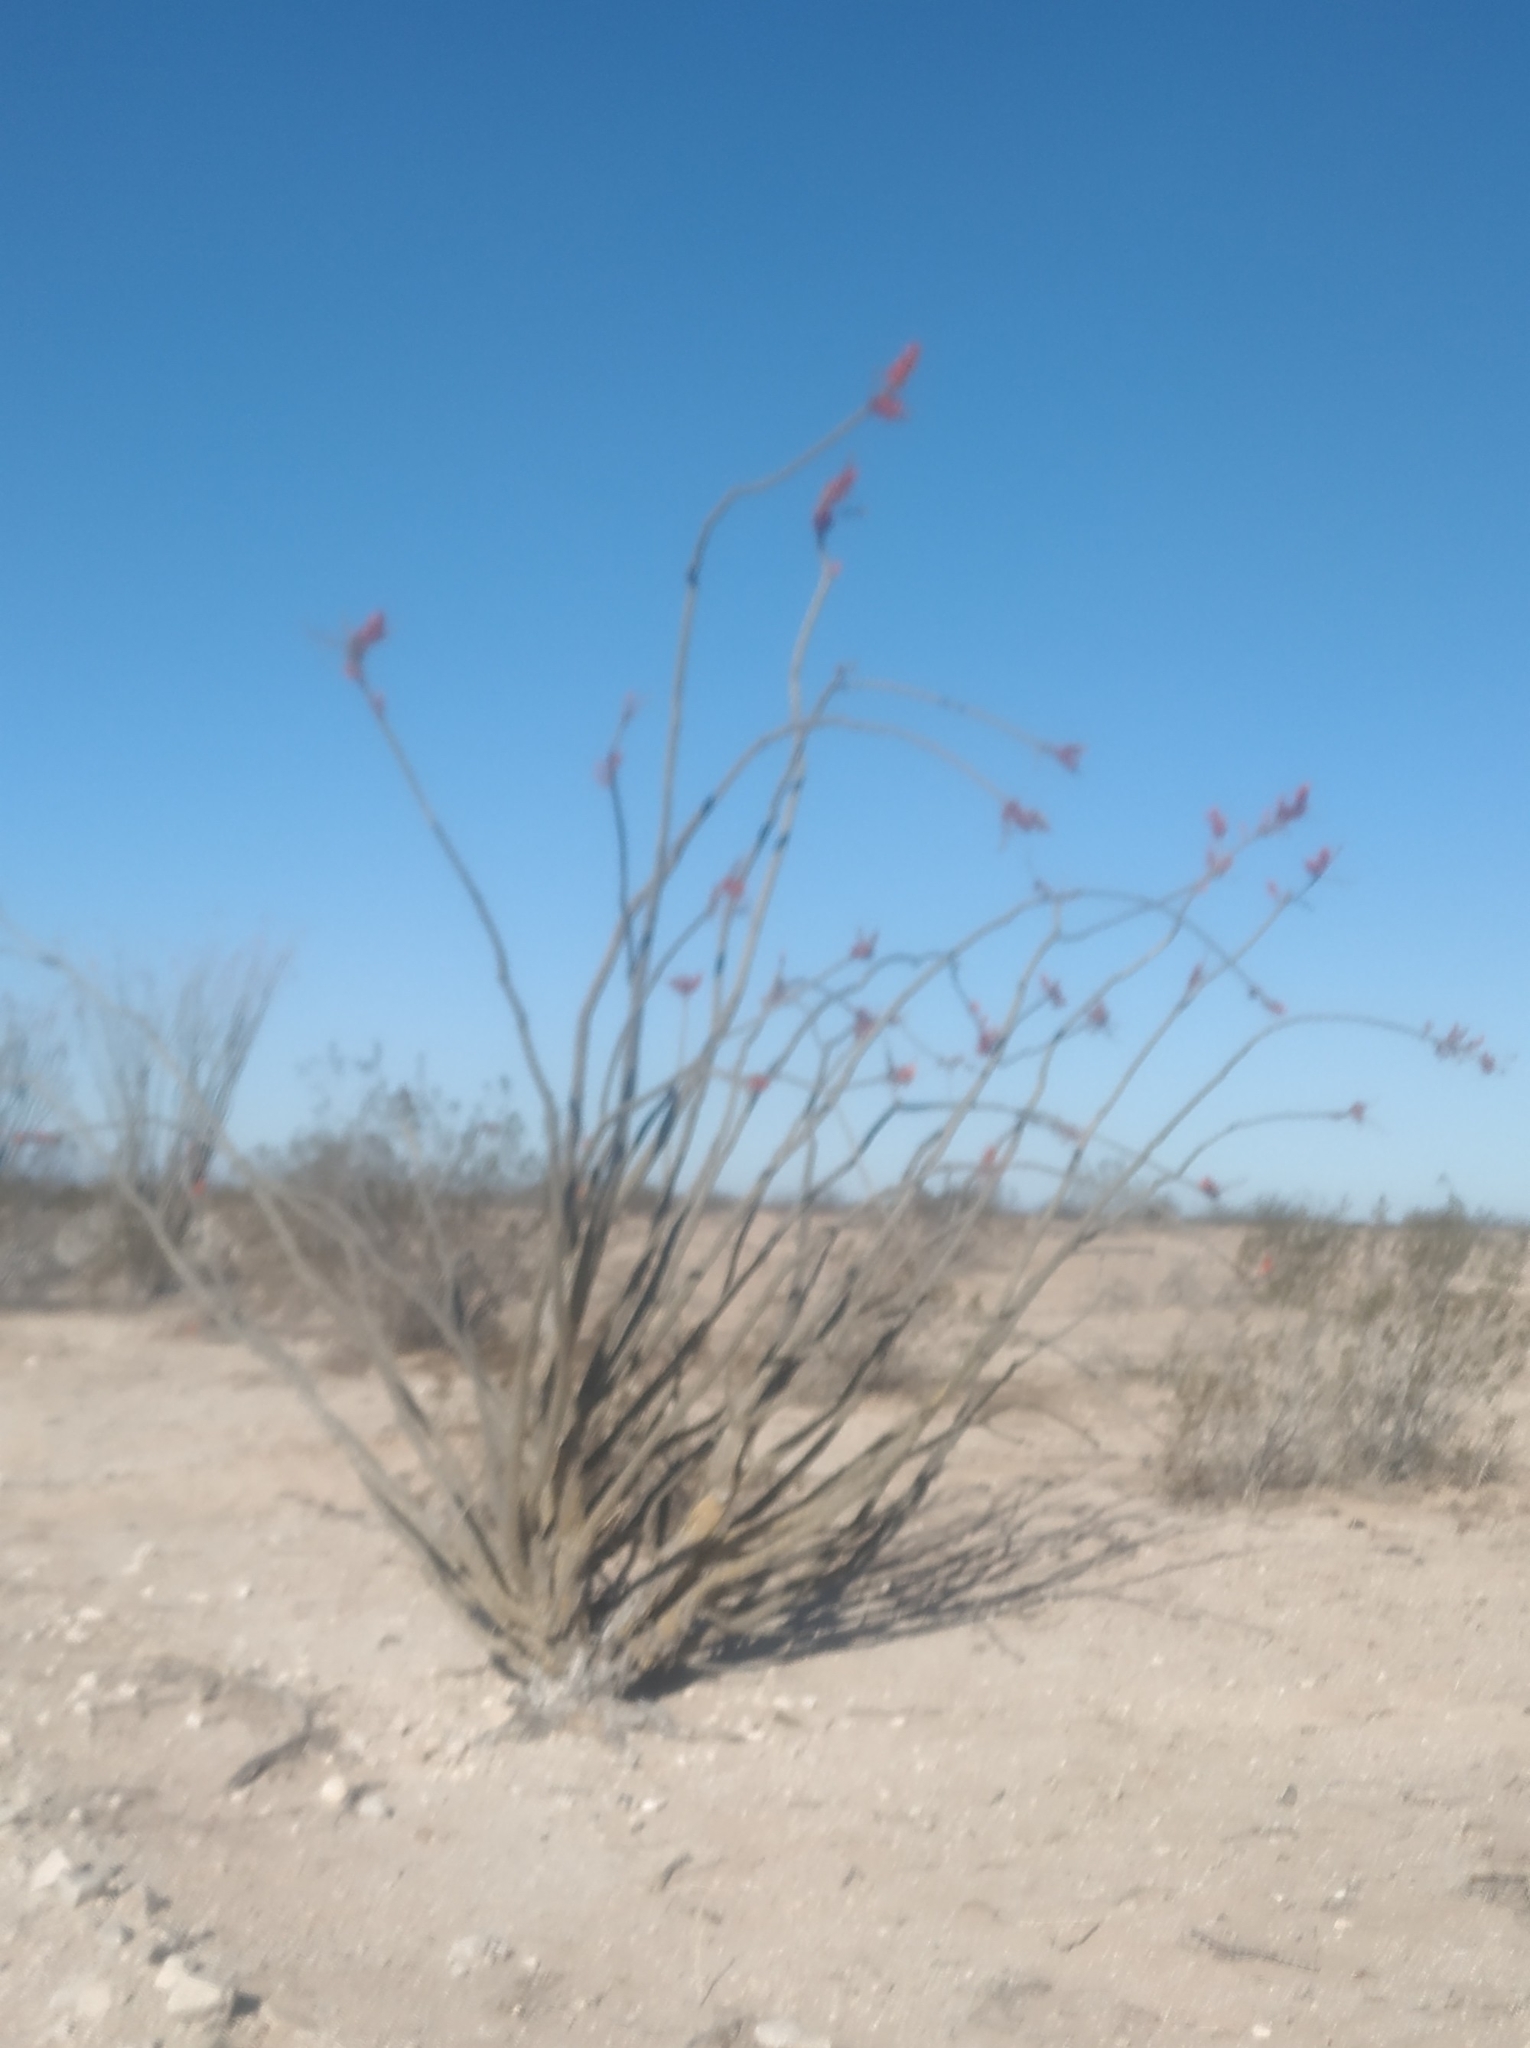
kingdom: Plantae
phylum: Tracheophyta
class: Magnoliopsida
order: Ericales
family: Fouquieriaceae
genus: Fouquieria
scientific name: Fouquieria splendens
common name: Vine-cactus
